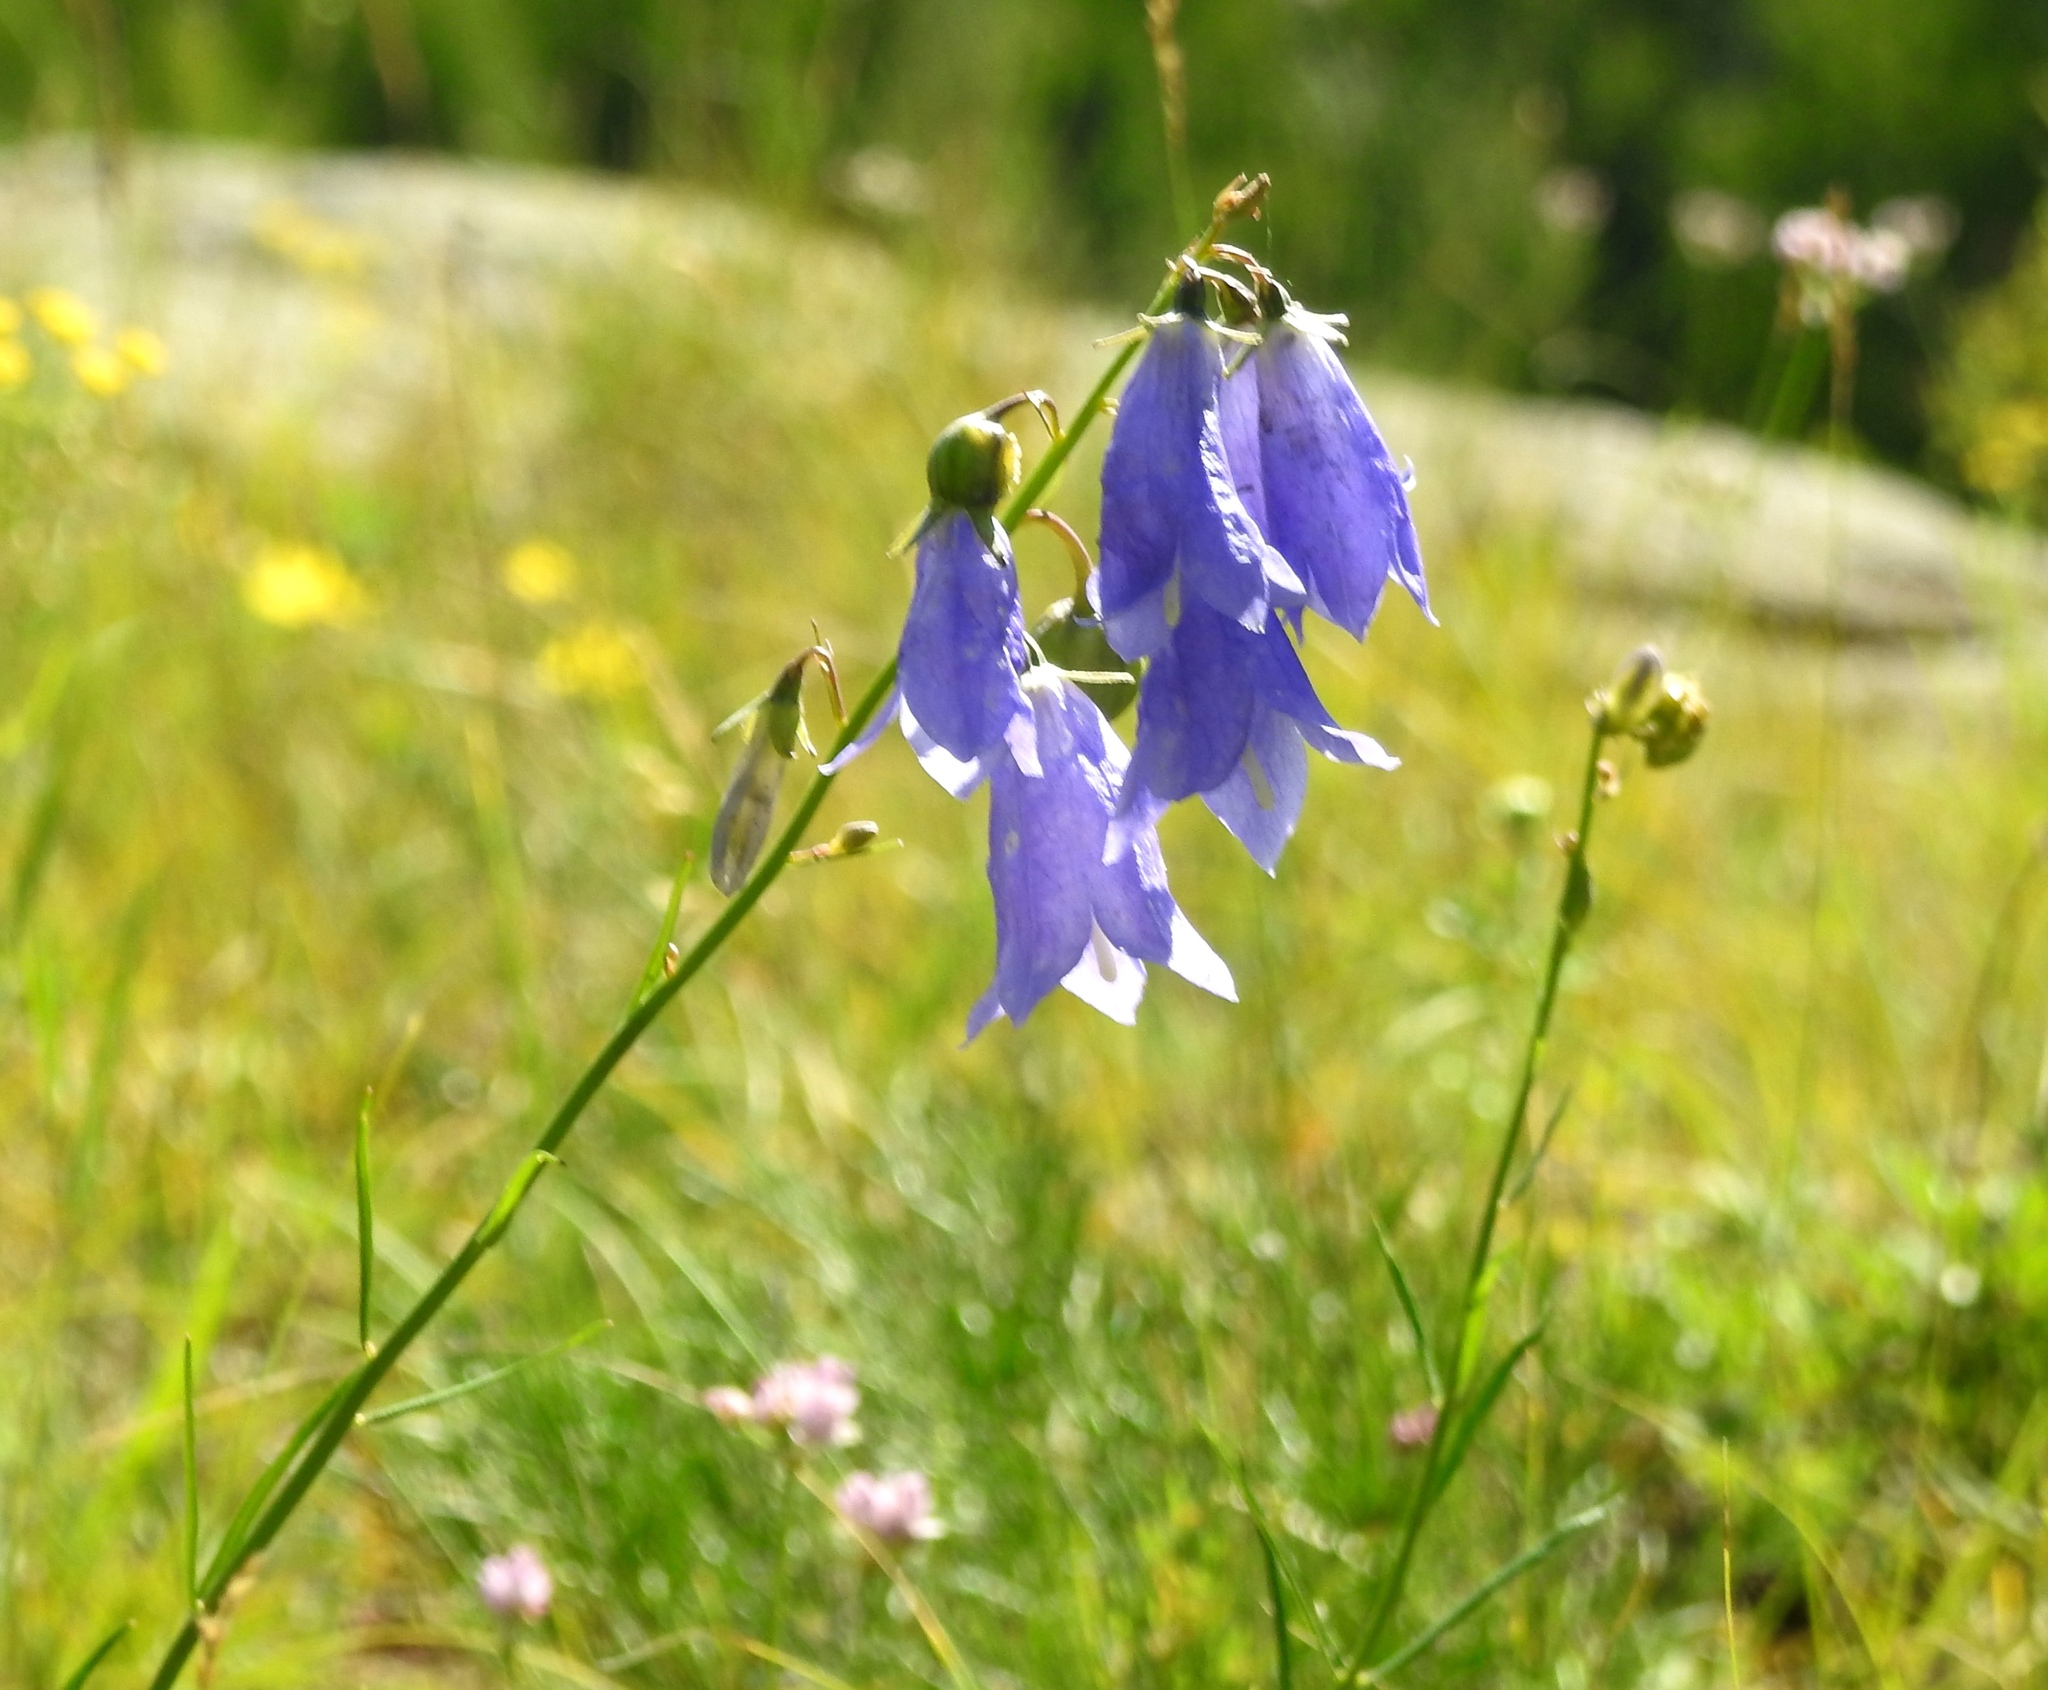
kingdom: Plantae
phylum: Tracheophyta
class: Magnoliopsida
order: Asterales
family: Campanulaceae
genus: Campanula
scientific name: Campanula rotundifolia
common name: Harebell
